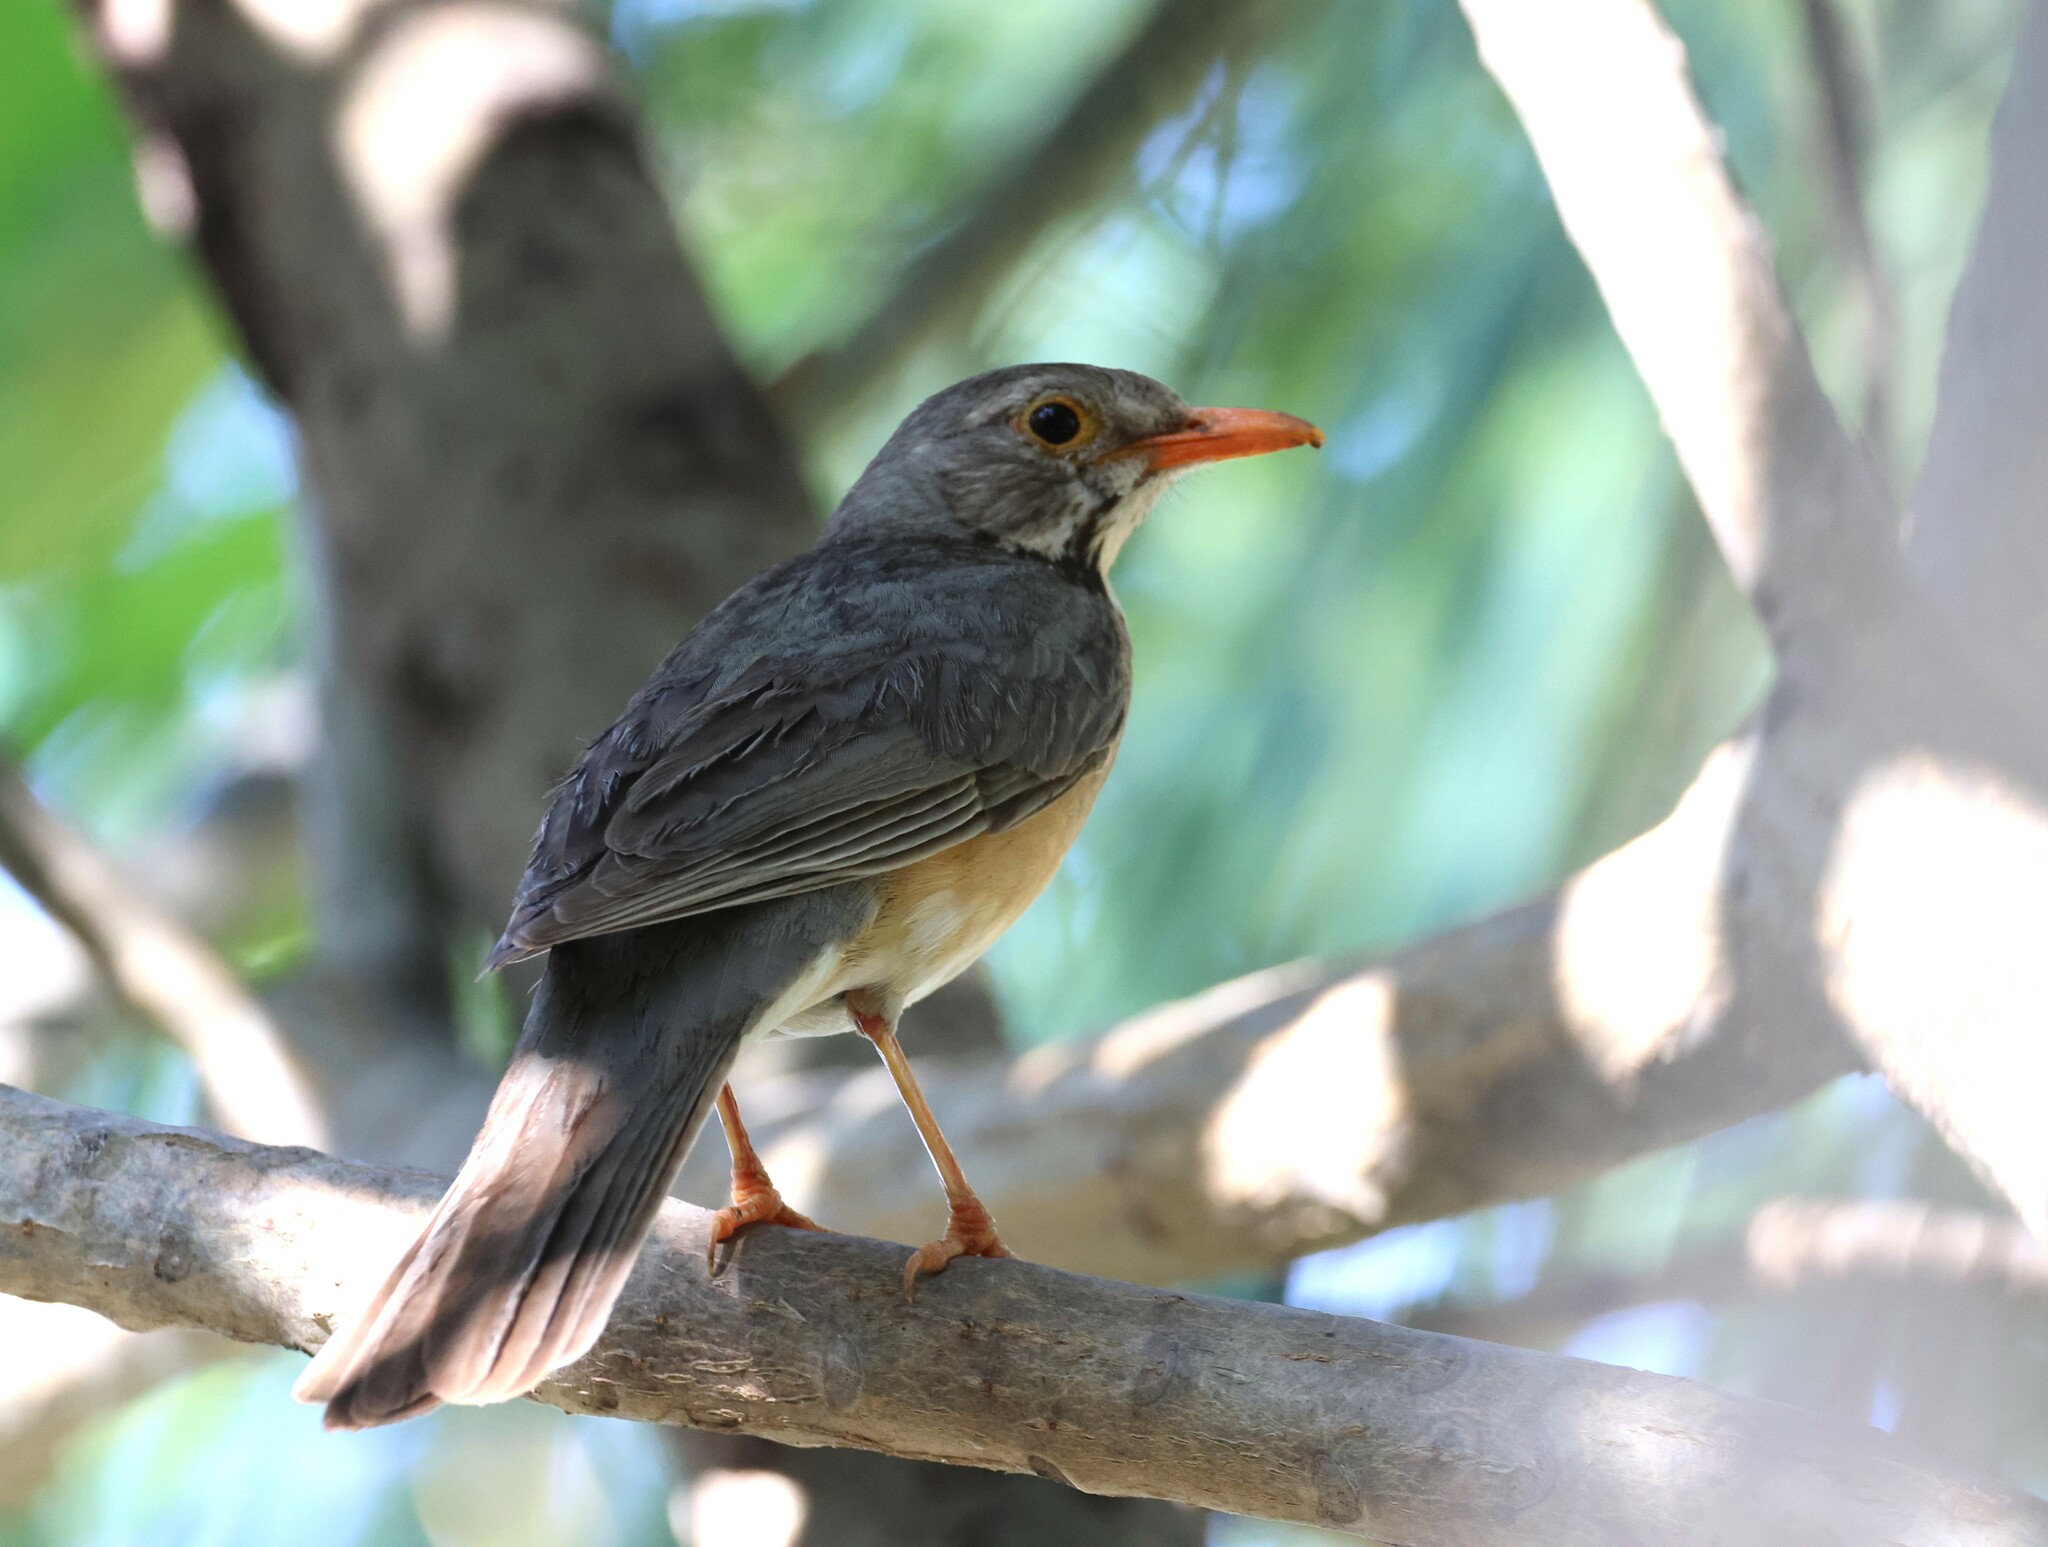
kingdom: Animalia
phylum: Chordata
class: Aves
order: Passeriformes
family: Turdidae
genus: Turdus
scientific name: Turdus libonyana
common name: Kurrichane thrush
